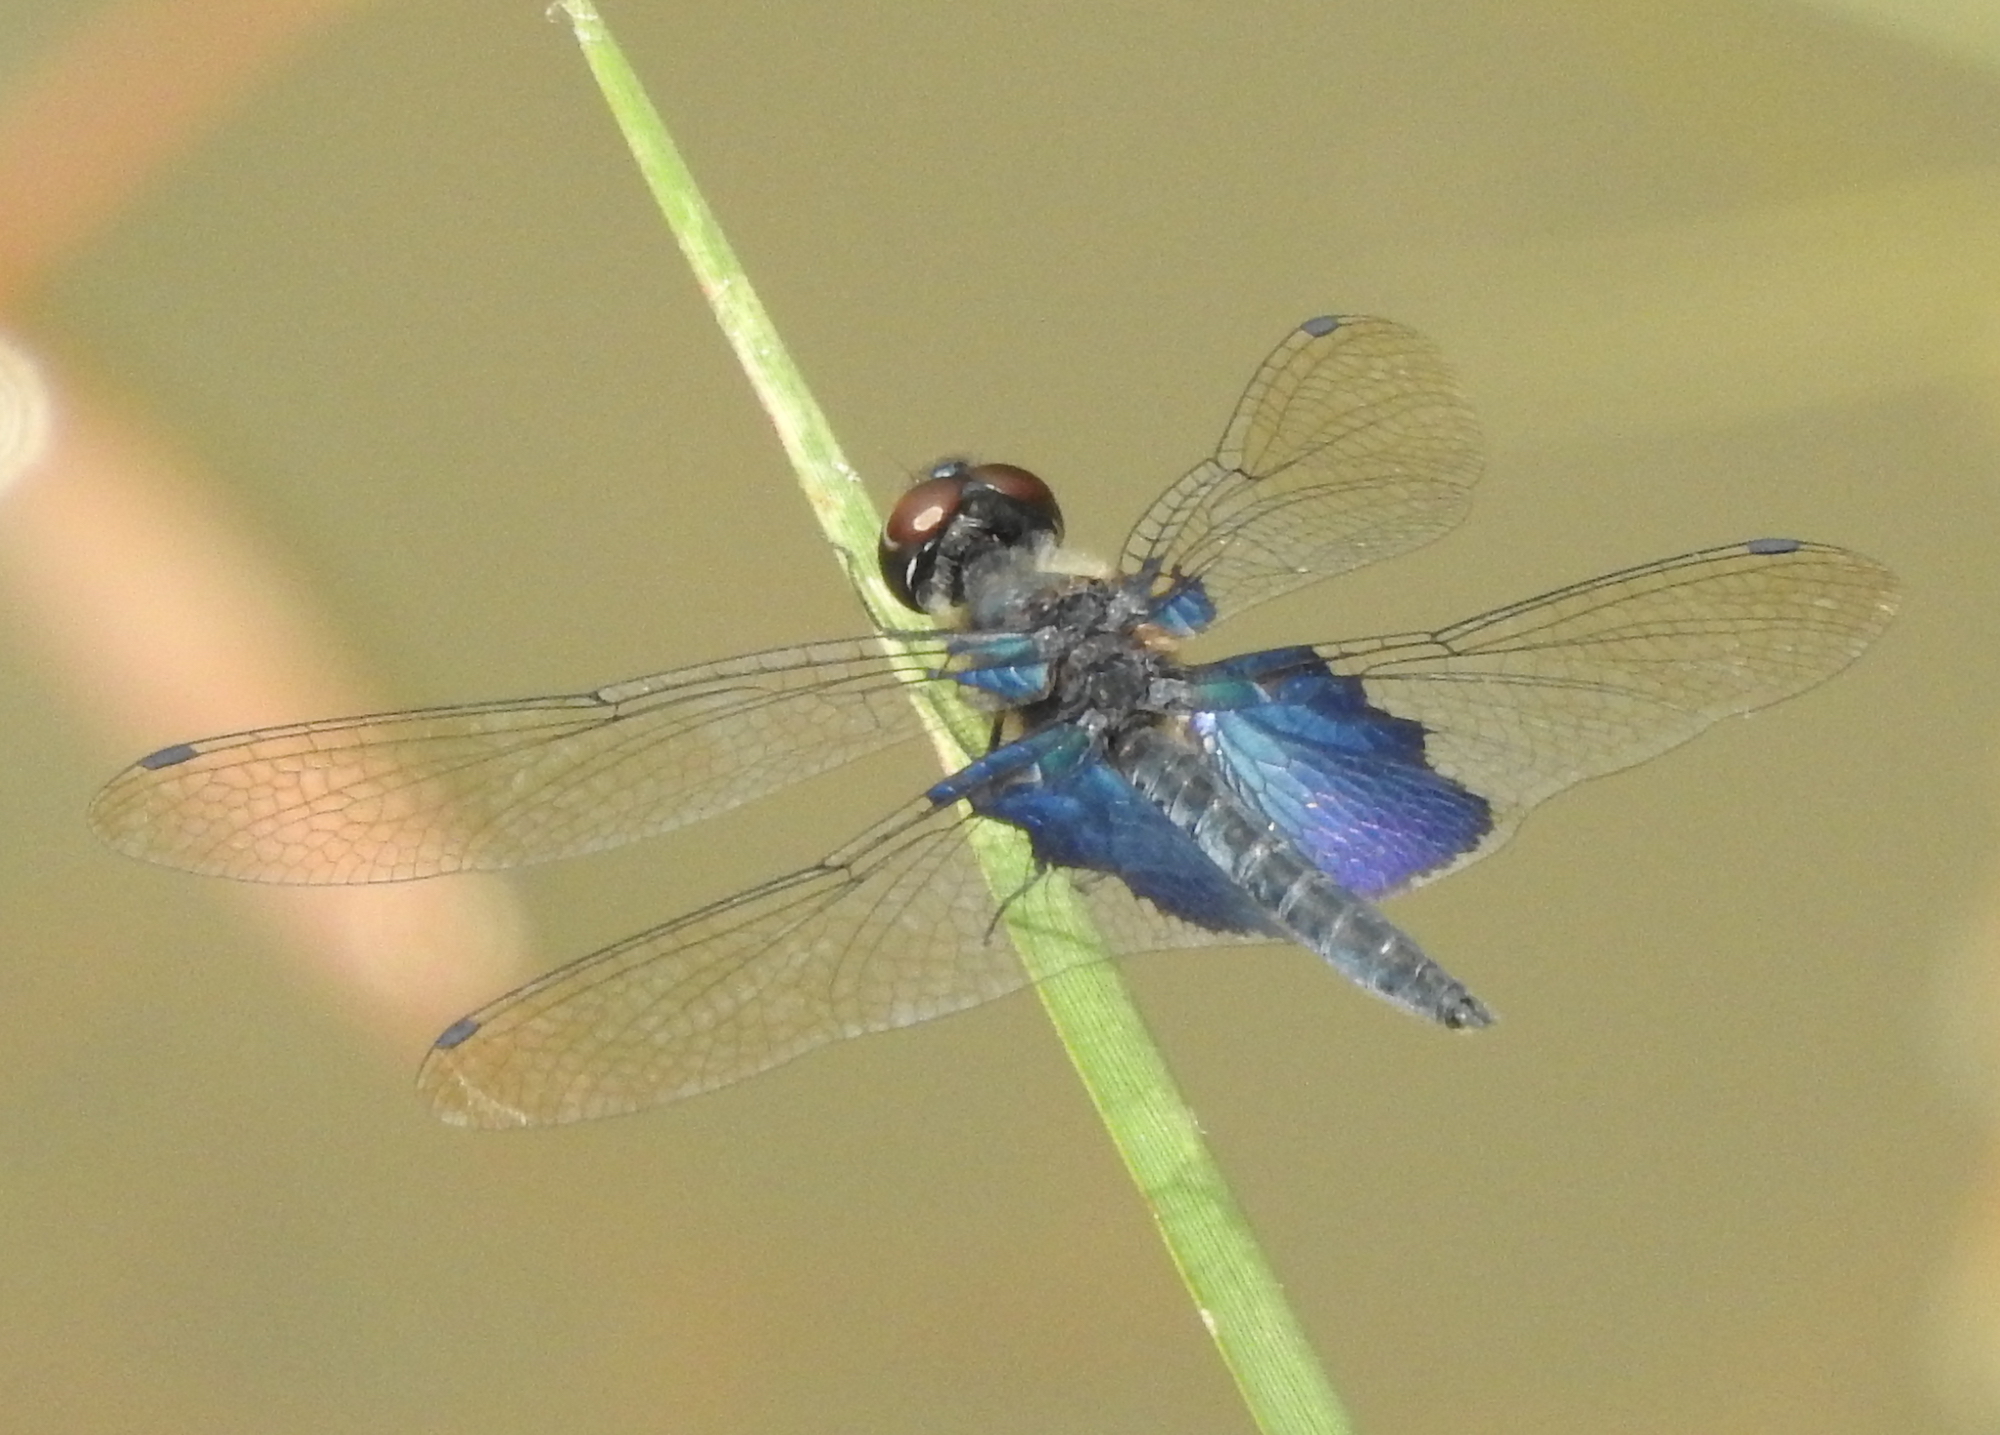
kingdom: Animalia
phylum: Arthropoda
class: Insecta
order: Odonata
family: Libellulidae
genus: Rhyothemis
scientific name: Rhyothemis triangularis
